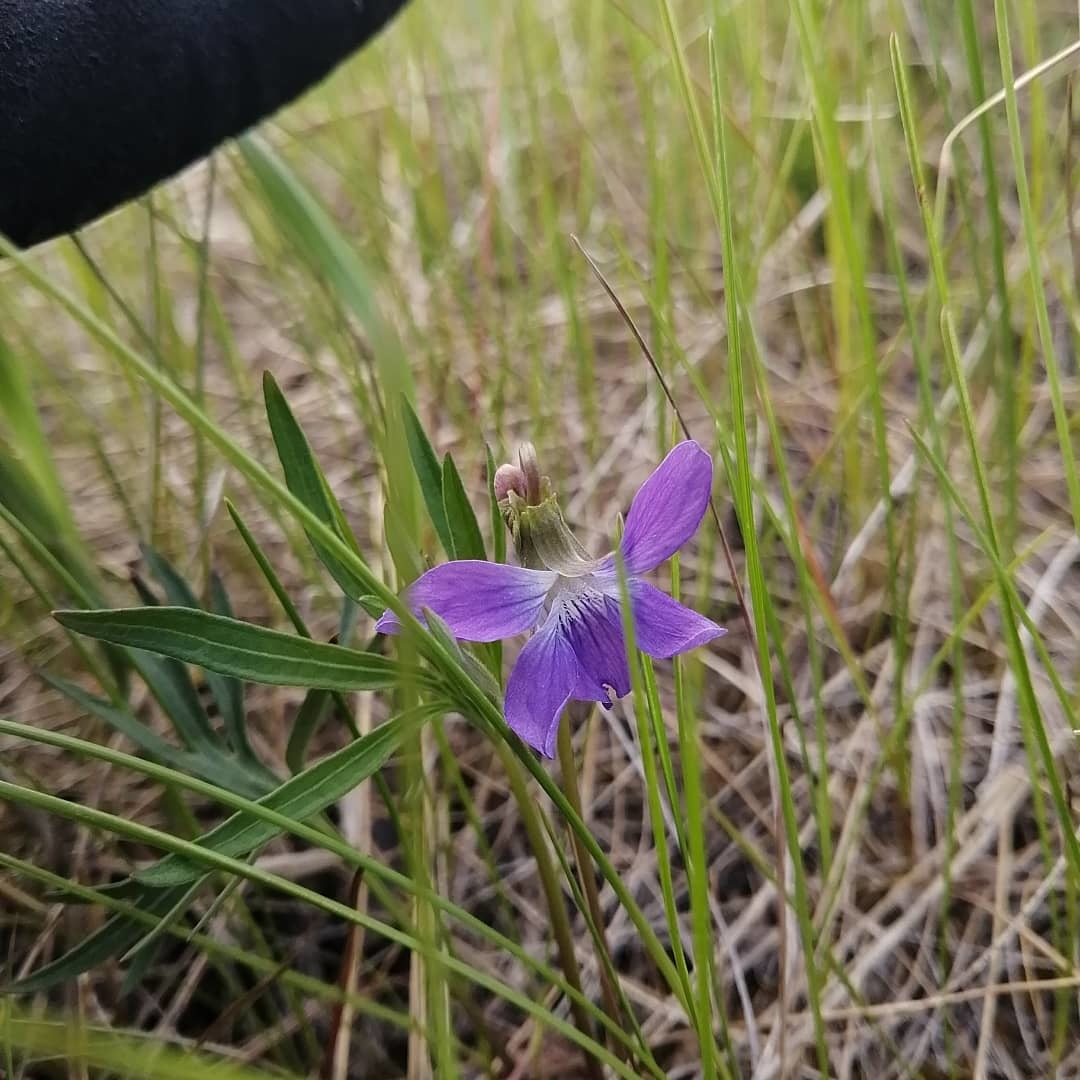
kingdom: Plantae
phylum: Tracheophyta
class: Magnoliopsida
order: Malpighiales
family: Violaceae
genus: Viola
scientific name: Viola pedatifida
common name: Prairie violet
